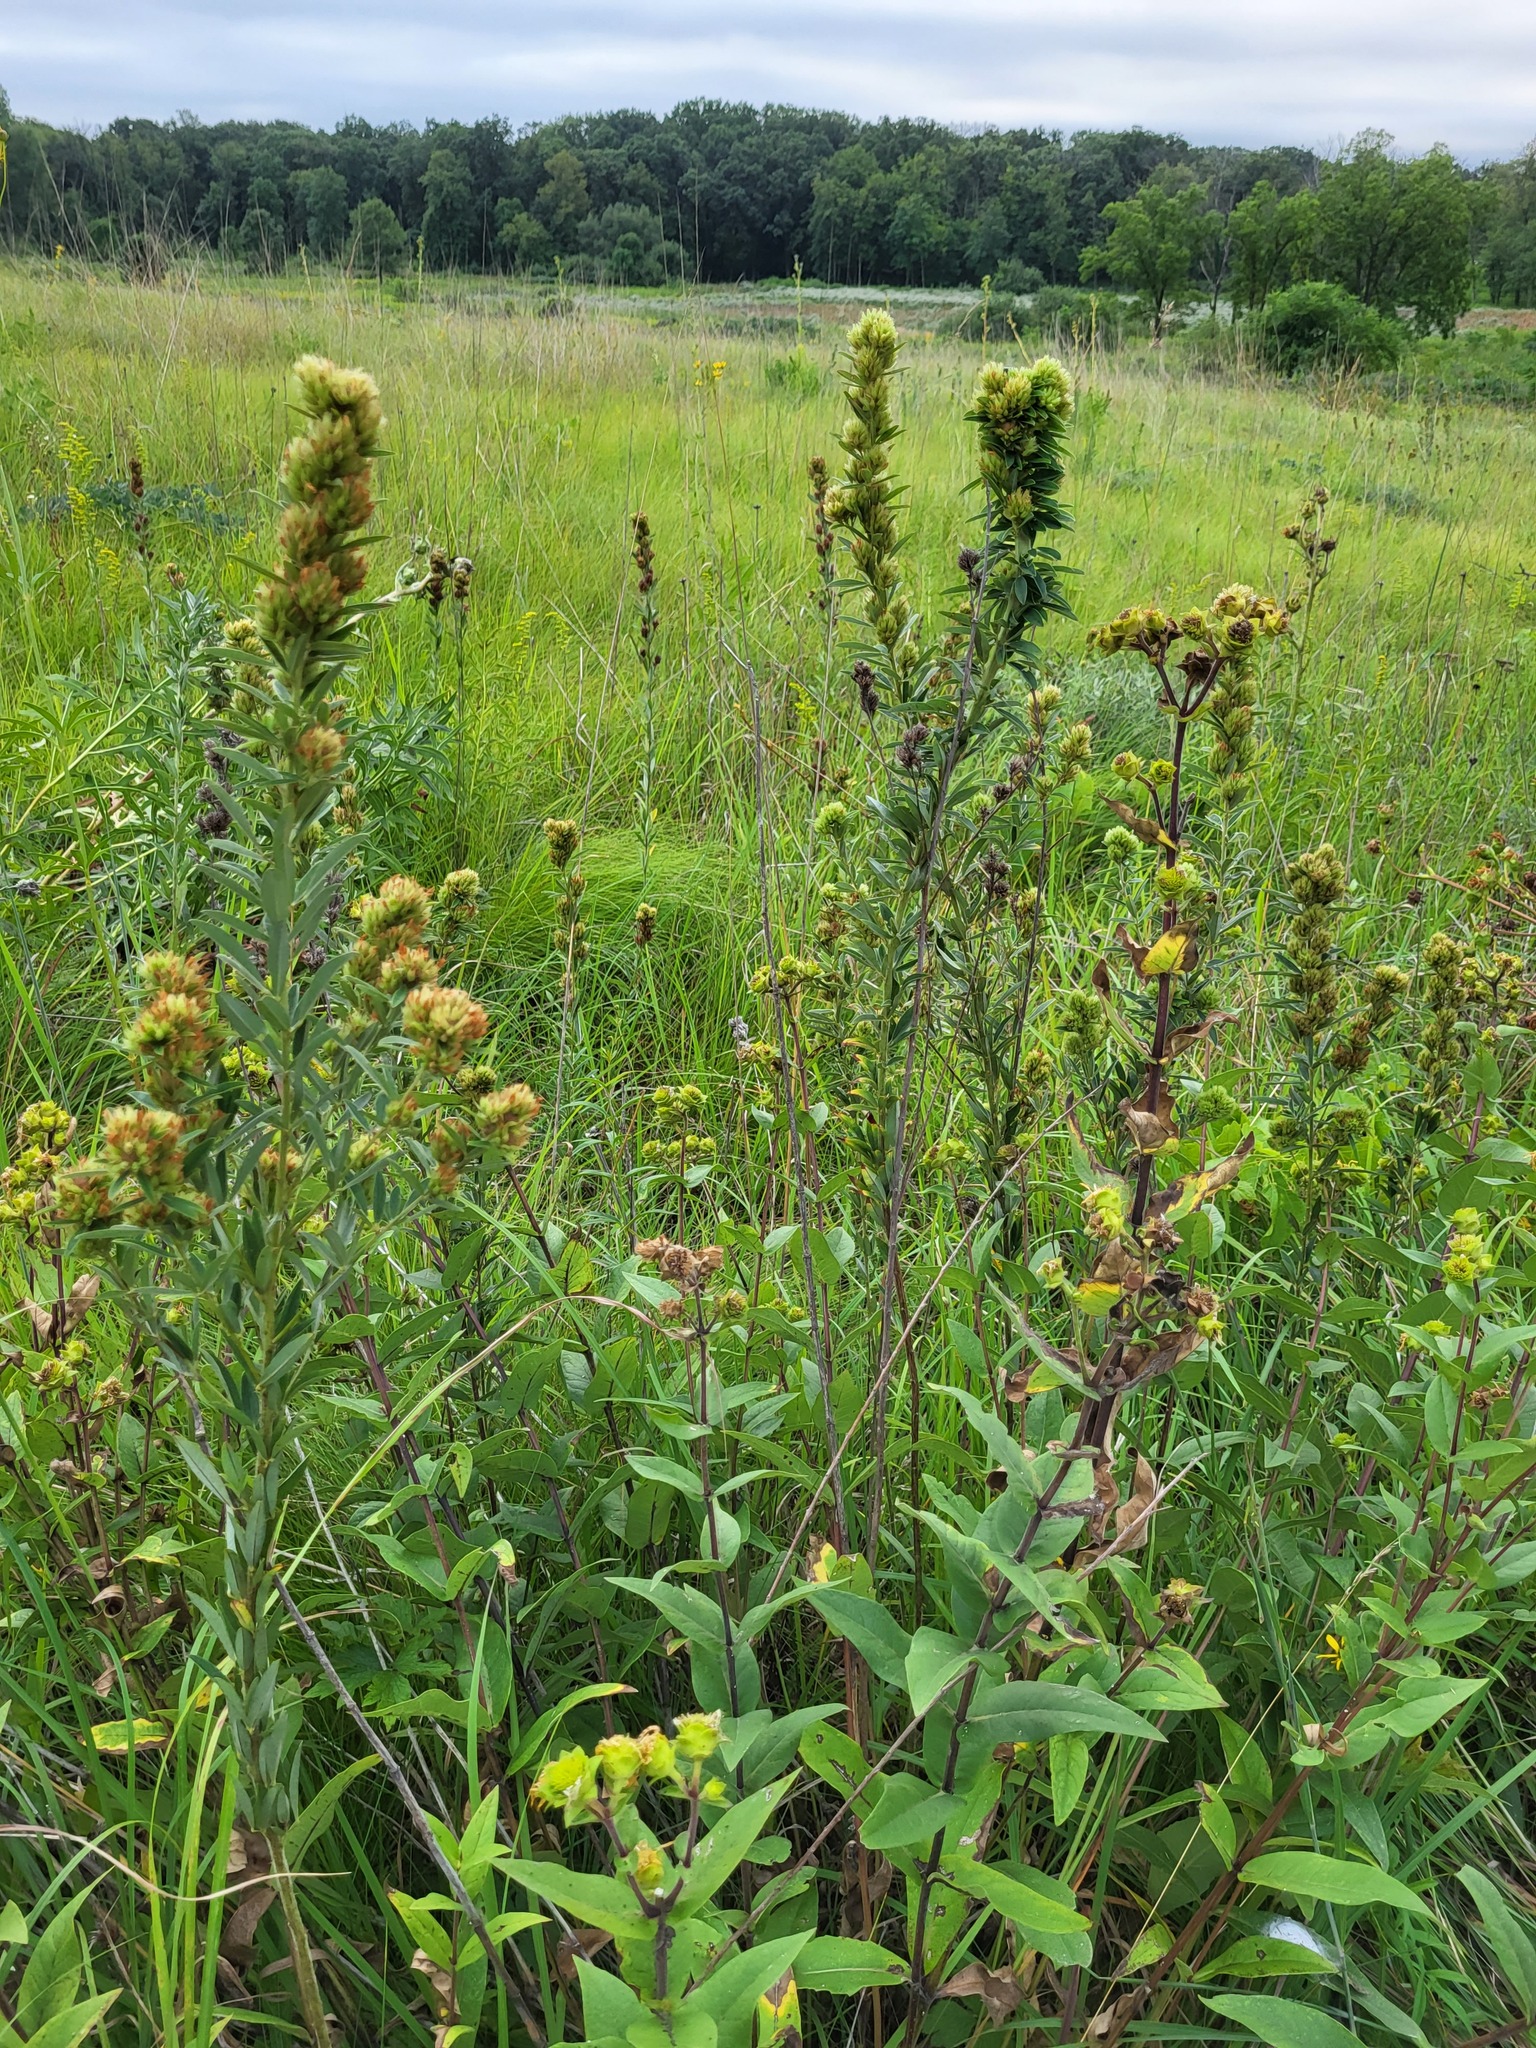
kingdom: Plantae
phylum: Tracheophyta
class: Magnoliopsida
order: Fabales
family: Fabaceae
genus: Lespedeza
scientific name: Lespedeza capitata
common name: Dusty clover
